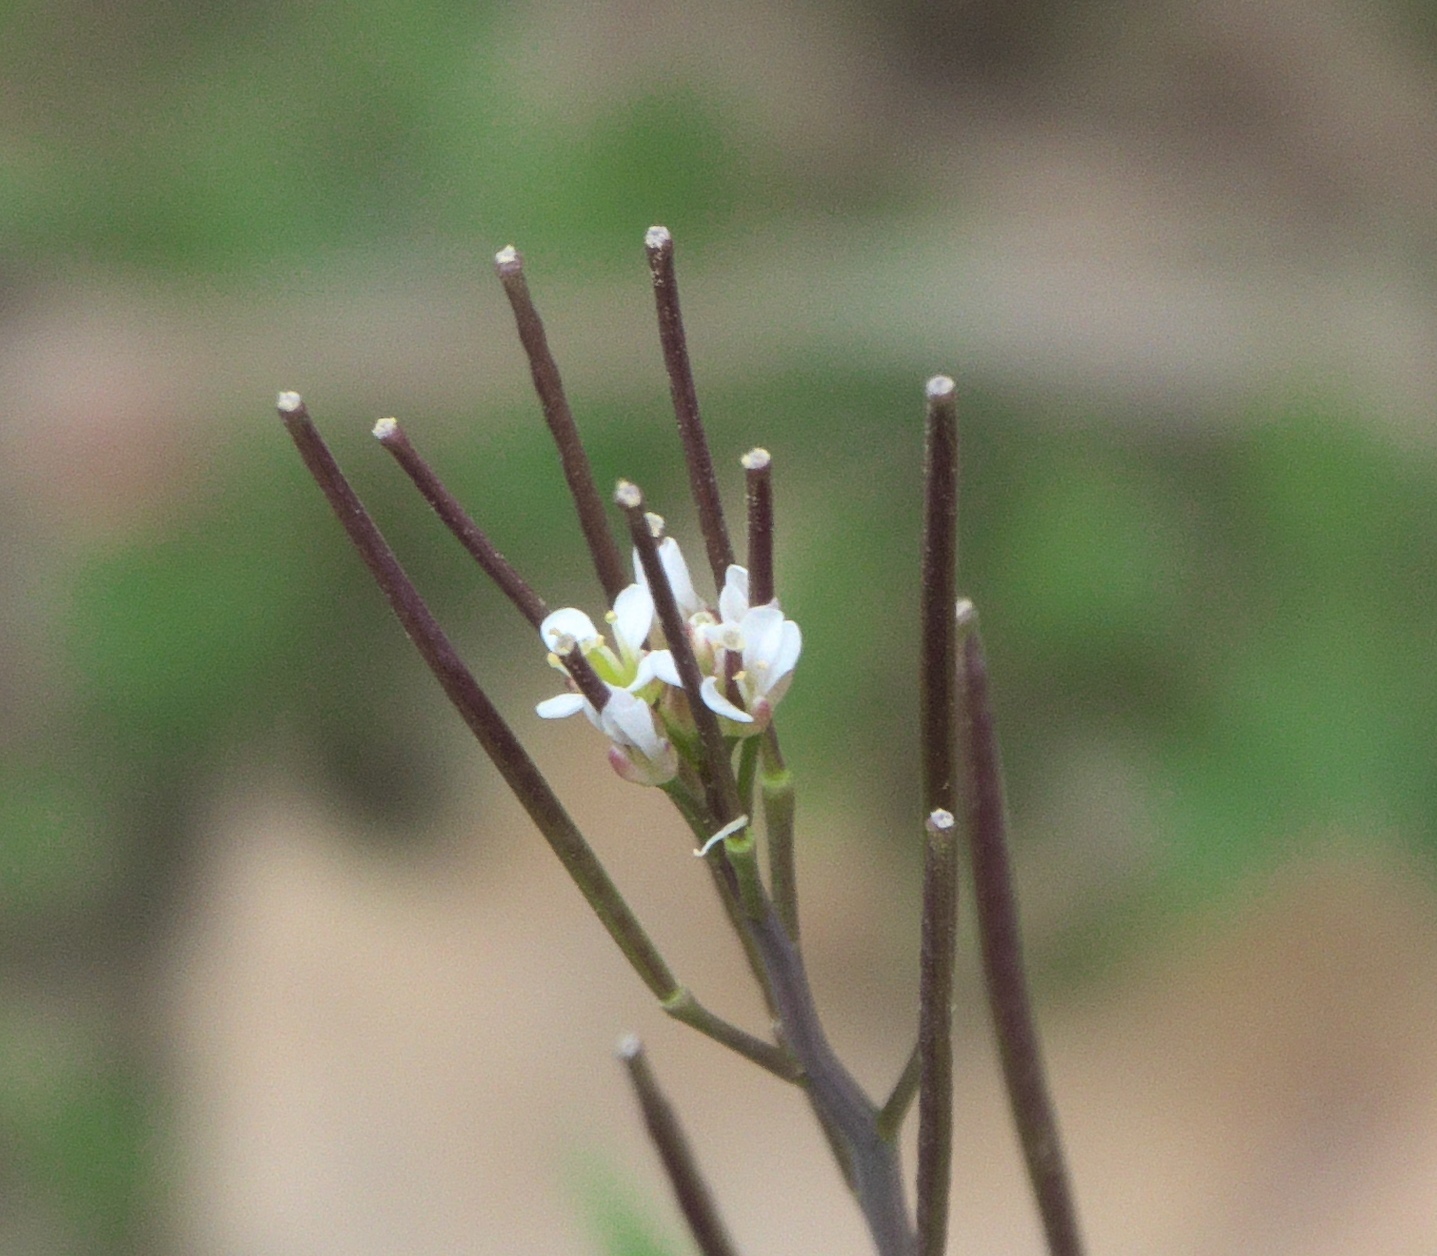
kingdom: Plantae
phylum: Tracheophyta
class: Magnoliopsida
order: Brassicales
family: Brassicaceae
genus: Cardamine
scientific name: Cardamine hirsuta
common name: Hairy bittercress
